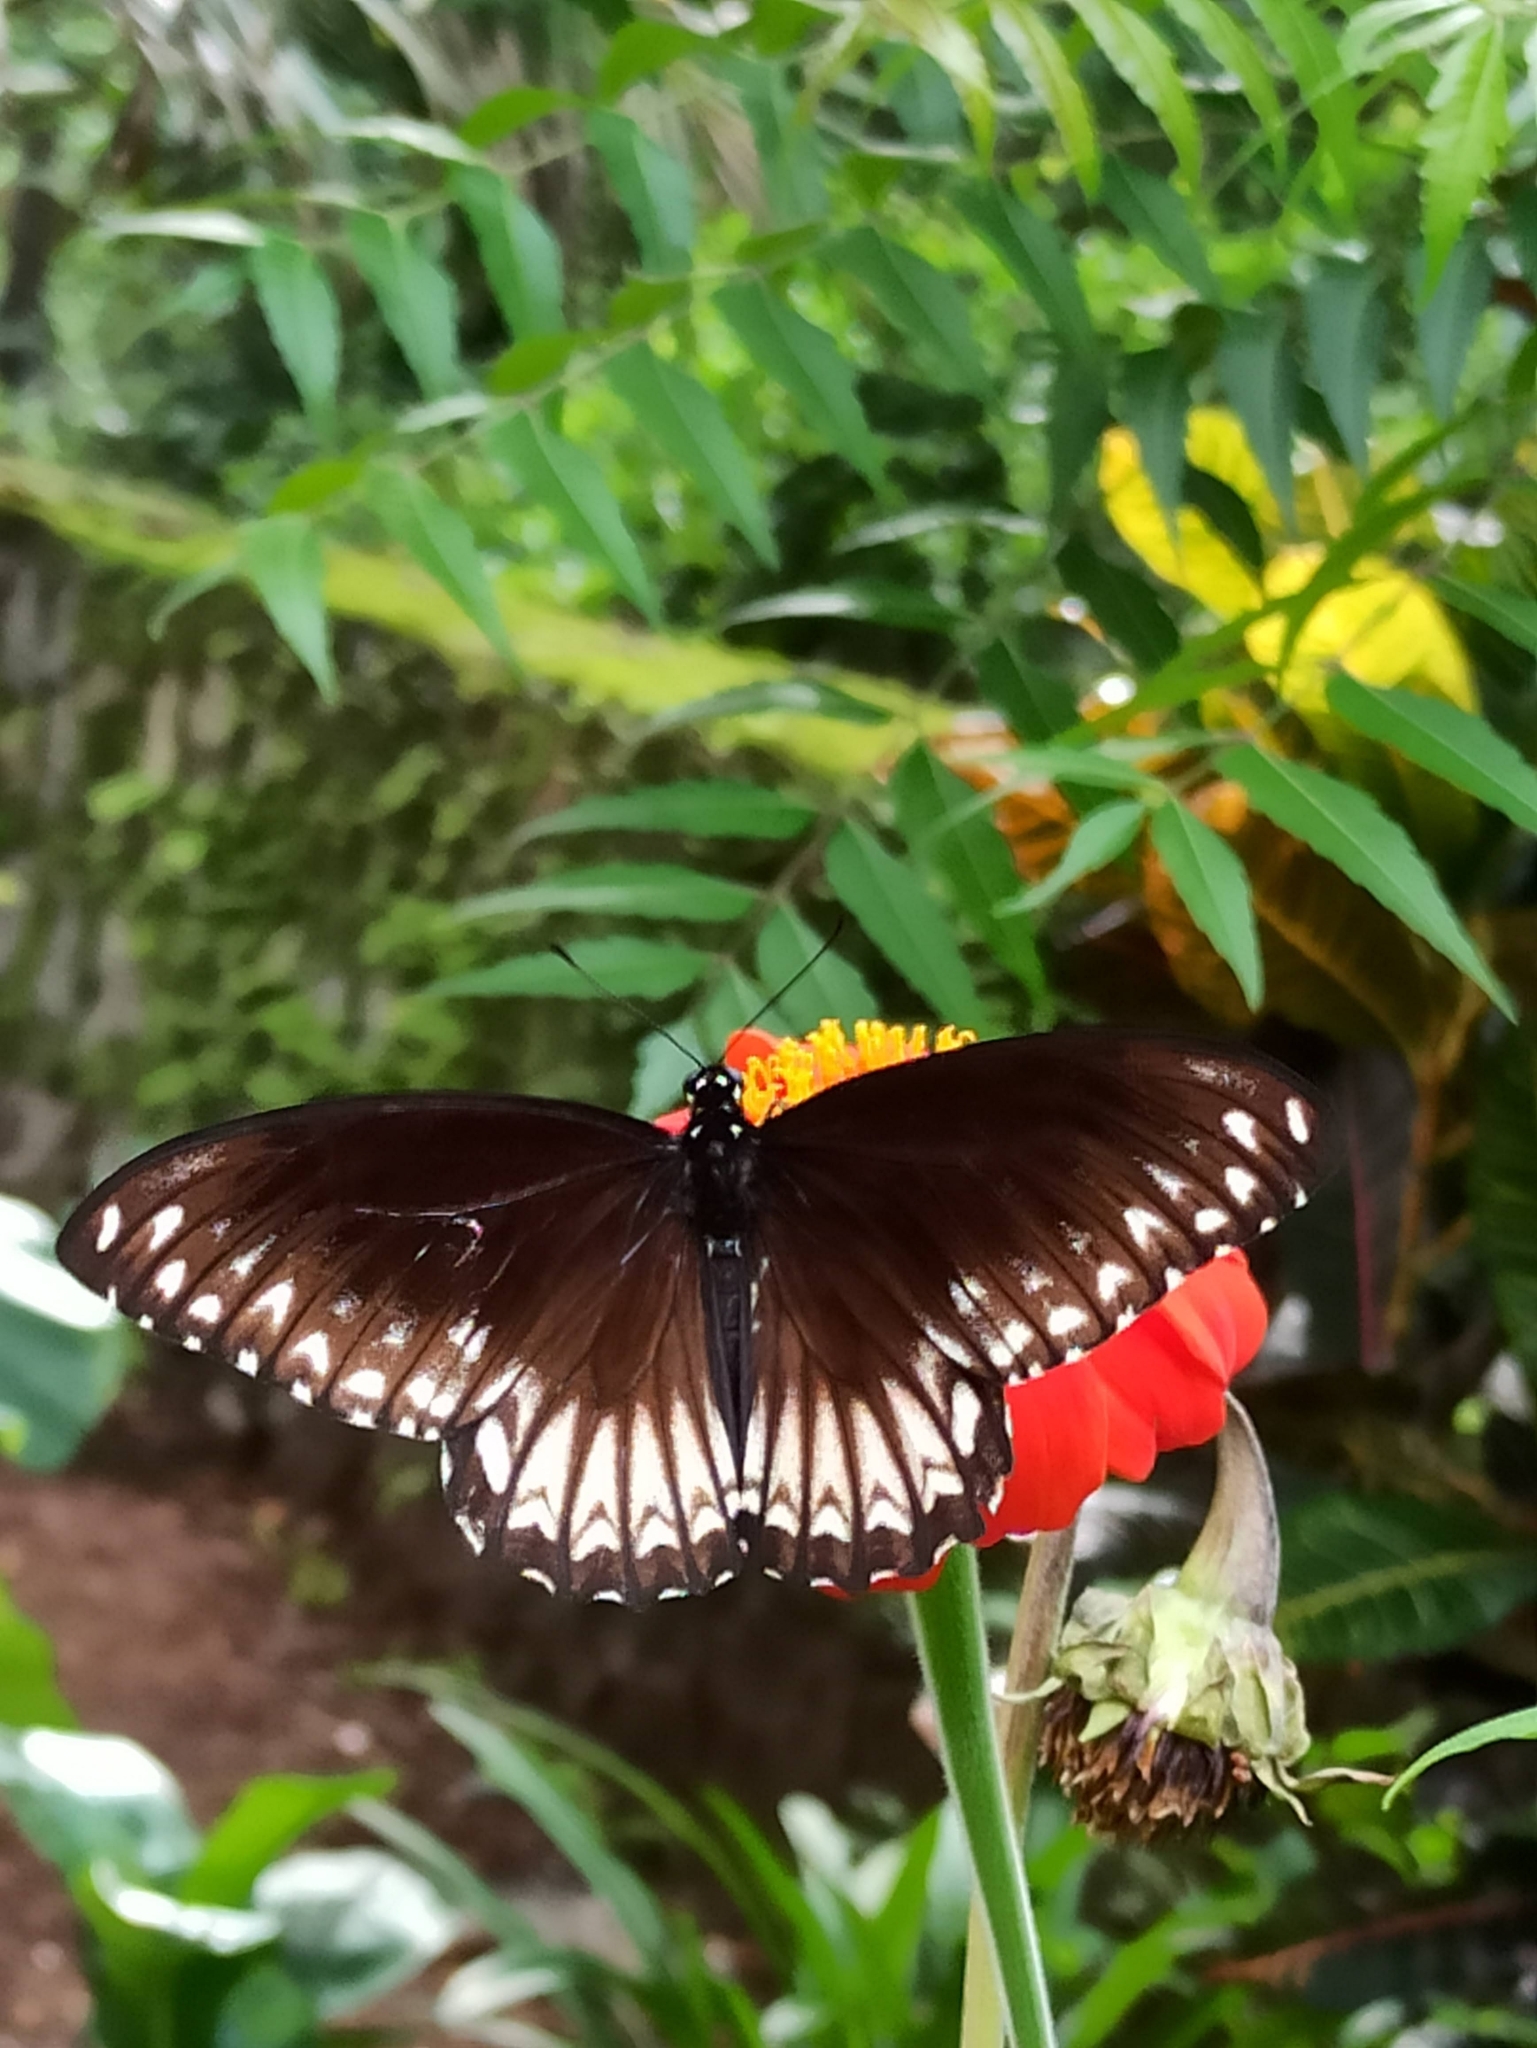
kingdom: Animalia
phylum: Arthropoda
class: Insecta
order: Lepidoptera
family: Papilionidae
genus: Chilasa
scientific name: Chilasa clytia
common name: Common mime
